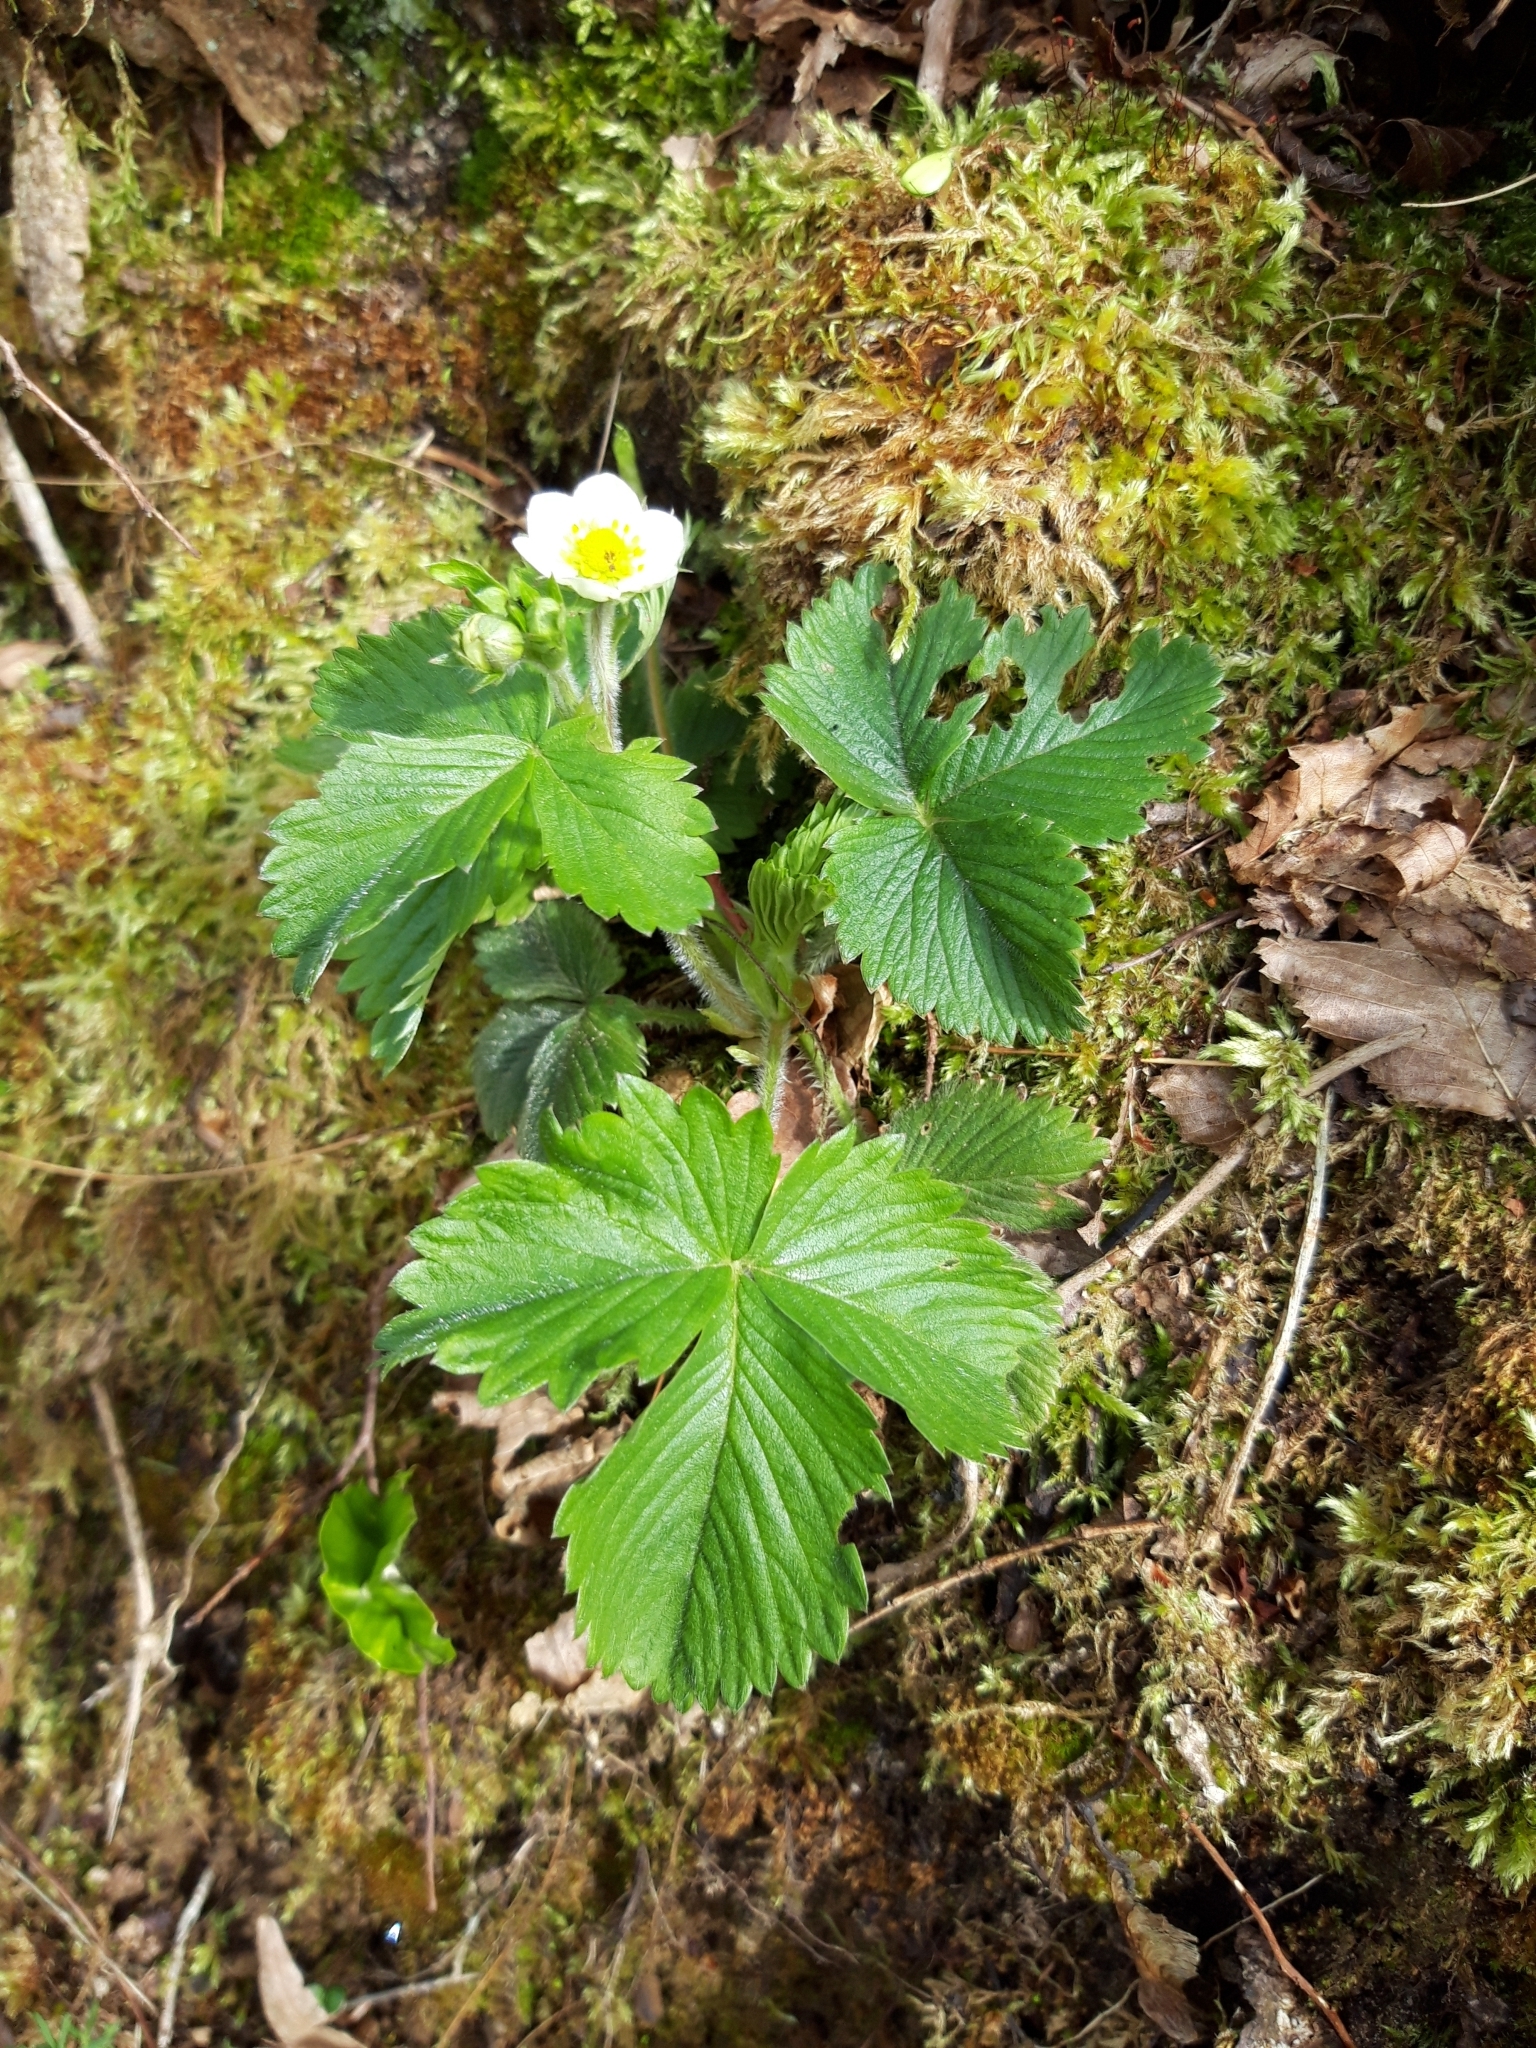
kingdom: Plantae
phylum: Tracheophyta
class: Magnoliopsida
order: Rosales
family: Rosaceae
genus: Fragaria
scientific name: Fragaria vesca
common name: Wild strawberry
